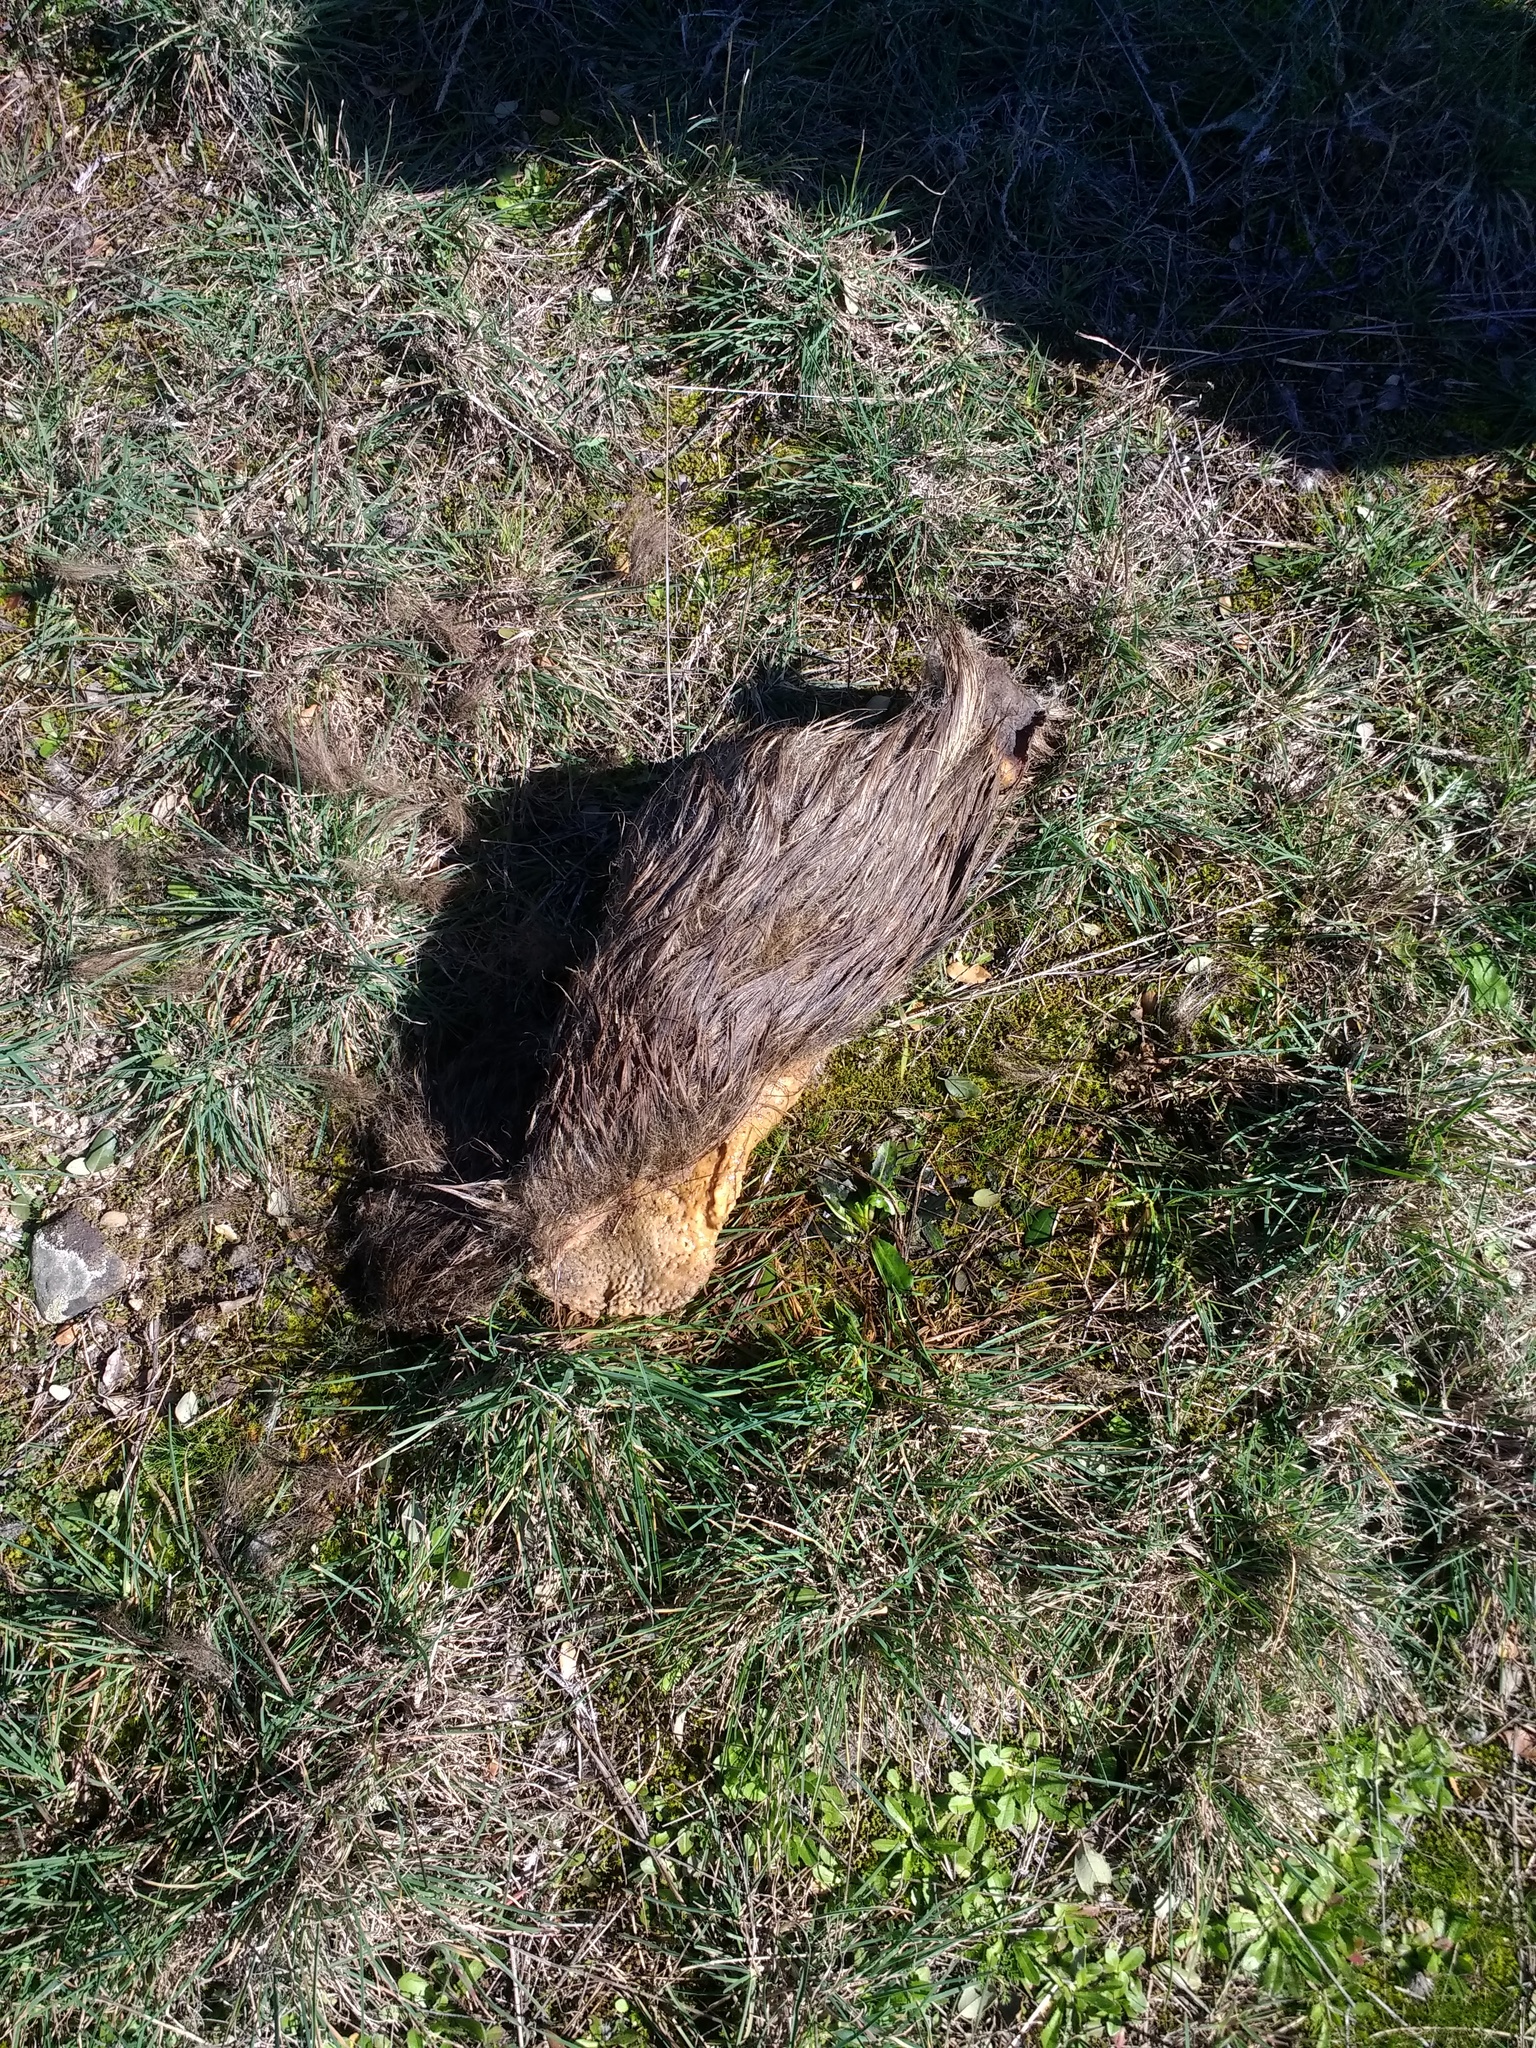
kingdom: Animalia
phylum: Chordata
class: Mammalia
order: Artiodactyla
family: Suidae
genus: Sus
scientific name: Sus scrofa
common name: Wild boar
